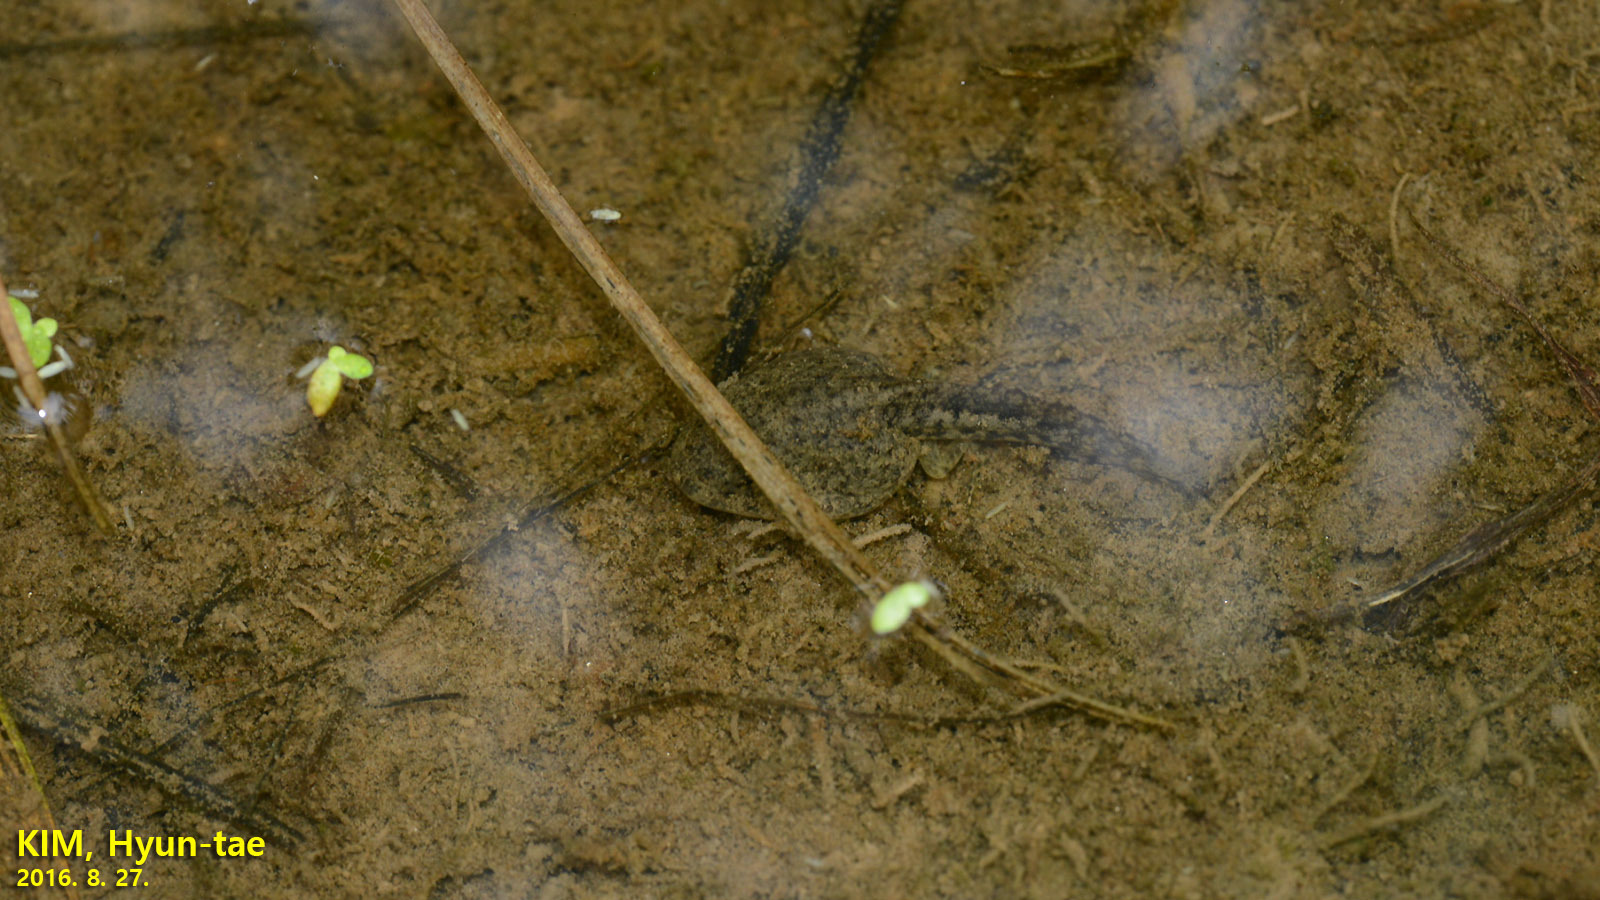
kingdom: Animalia
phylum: Chordata
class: Amphibia
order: Anura
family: Ranidae
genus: Glandirana
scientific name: Glandirana emeljanovi
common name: Northeast china rough-skinned frog
